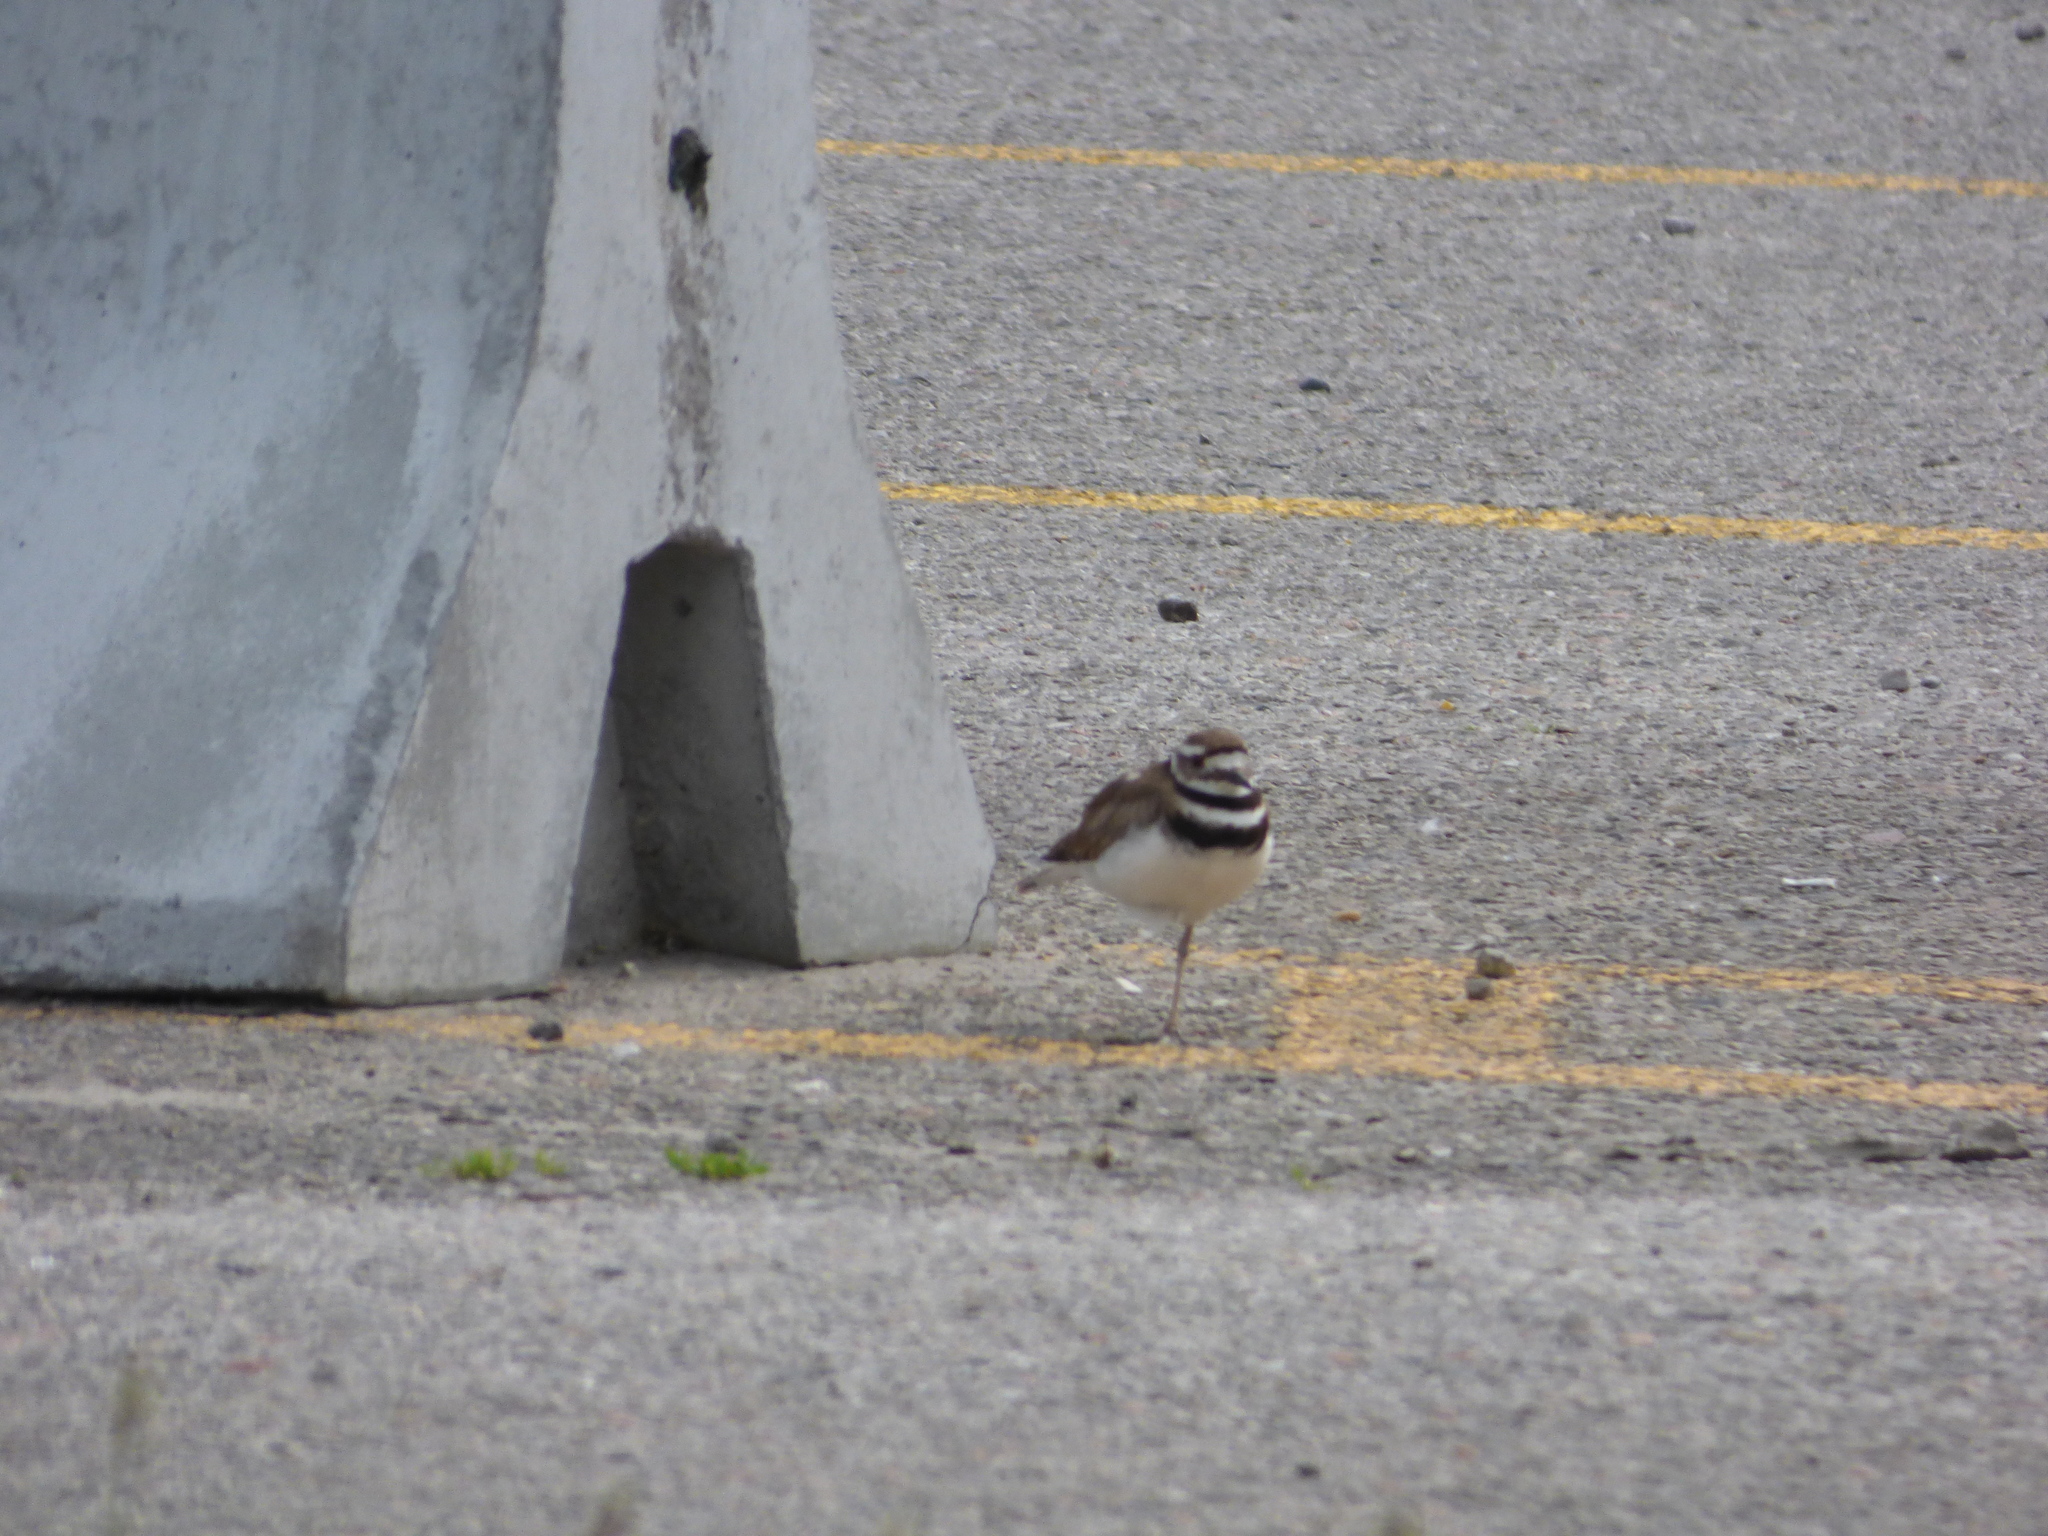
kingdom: Animalia
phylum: Chordata
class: Aves
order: Charadriiformes
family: Charadriidae
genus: Charadrius
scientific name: Charadrius vociferus
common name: Killdeer
